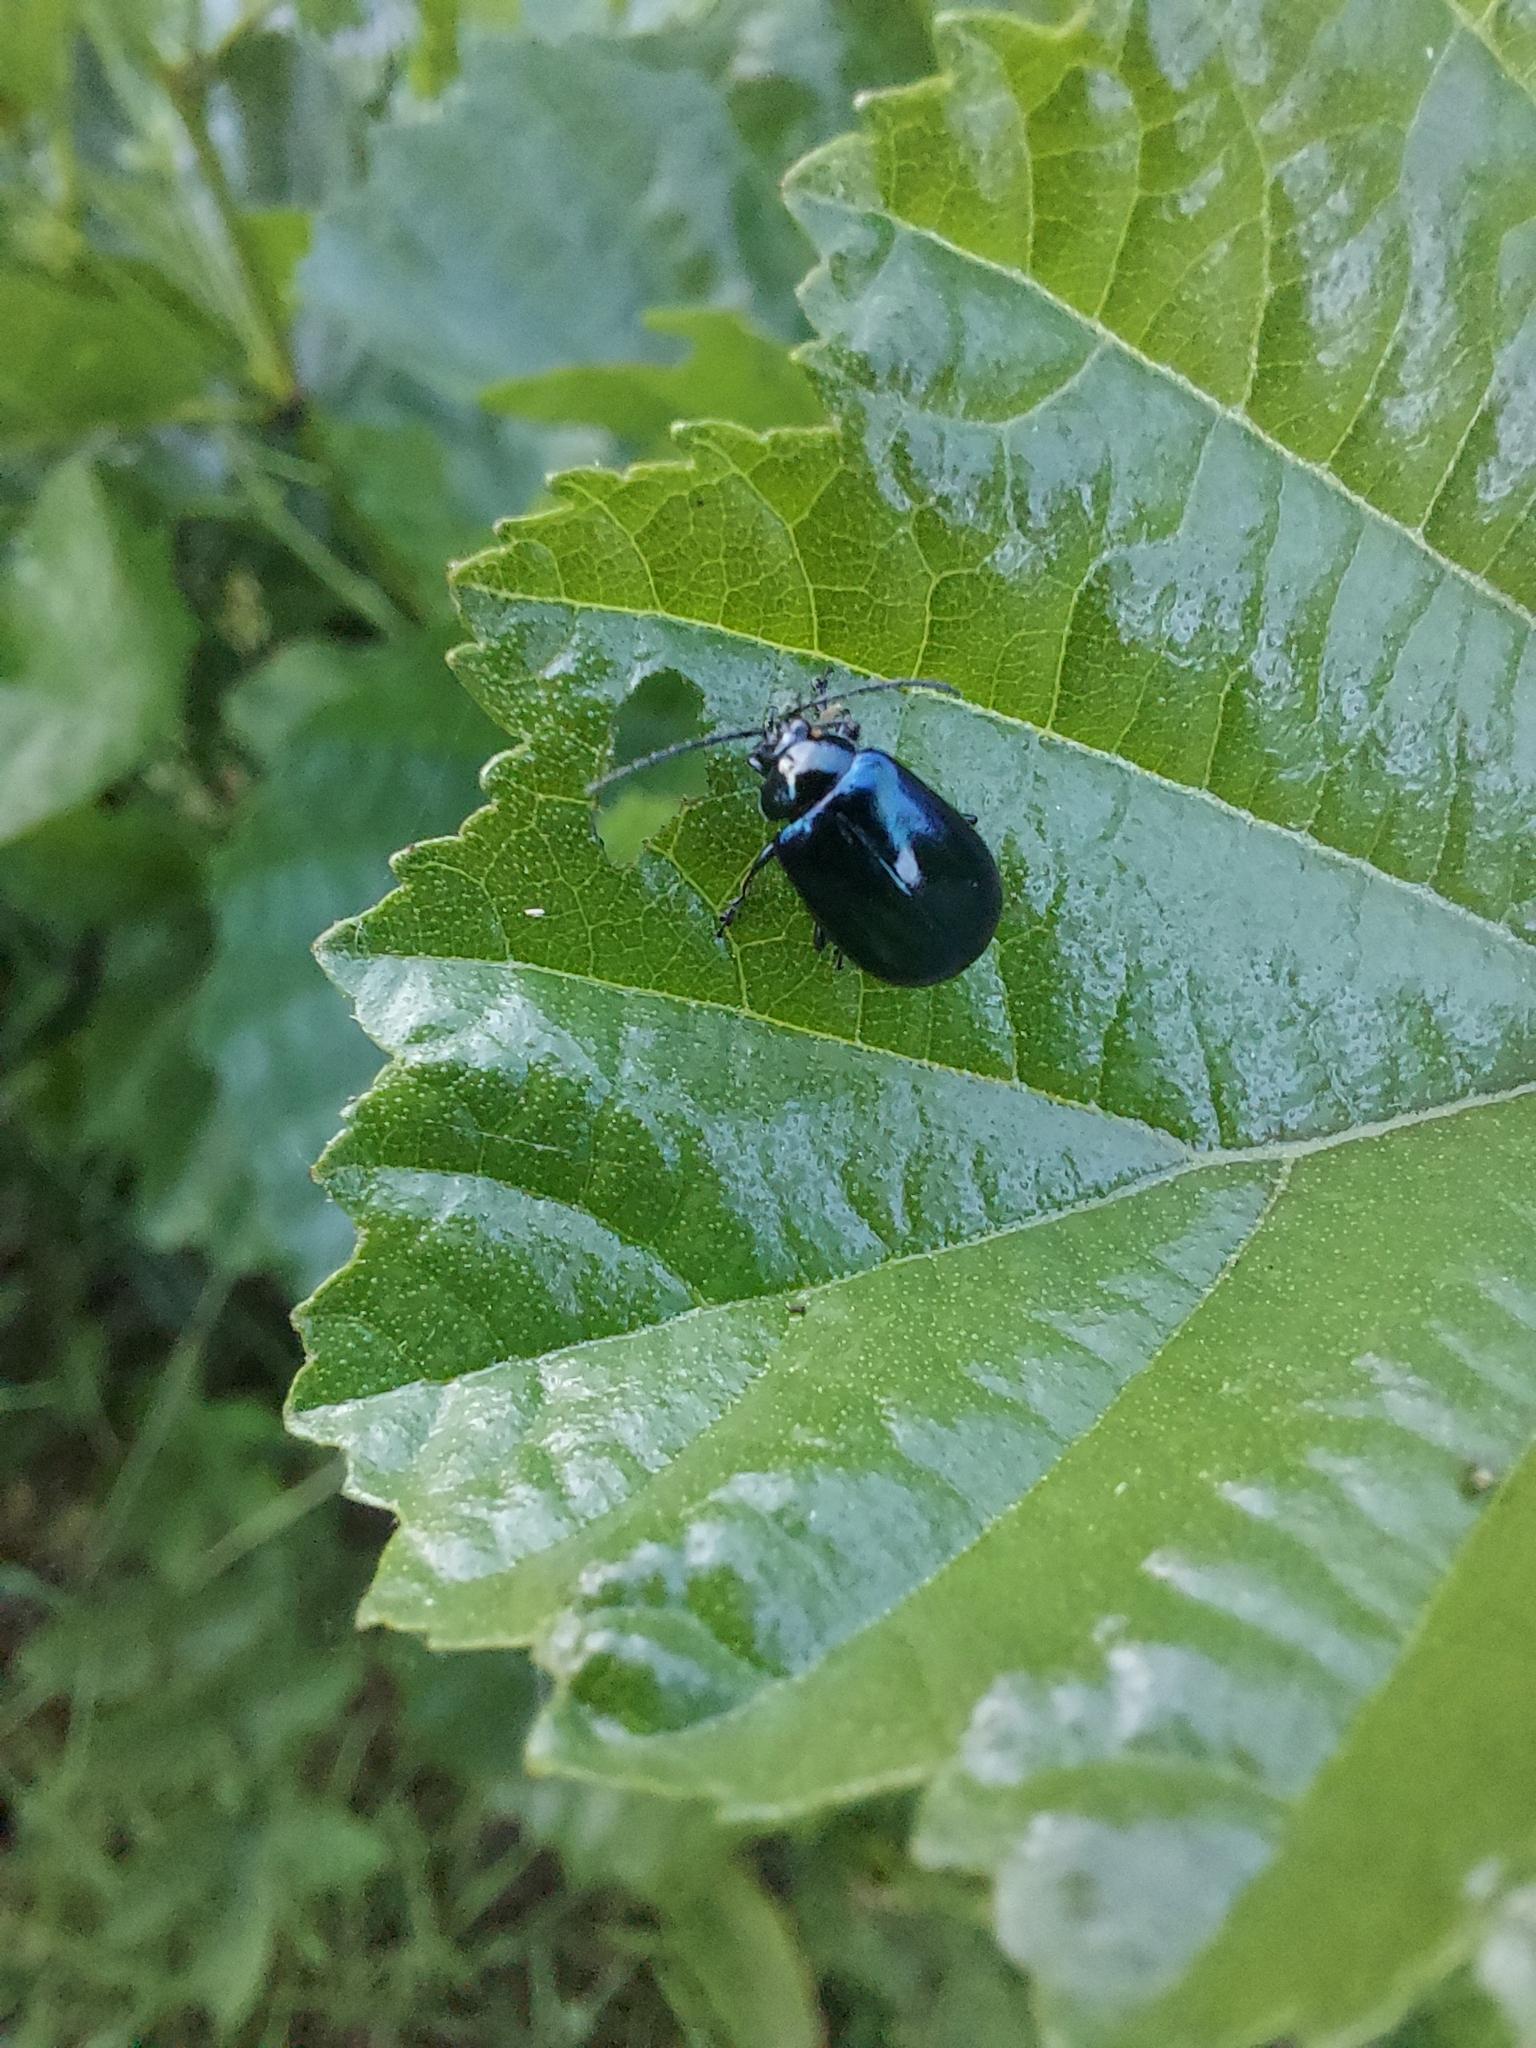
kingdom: Animalia
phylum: Arthropoda
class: Insecta
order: Coleoptera
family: Chrysomelidae
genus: Agelastica
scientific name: Agelastica alni
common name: Alder leaf beetle
